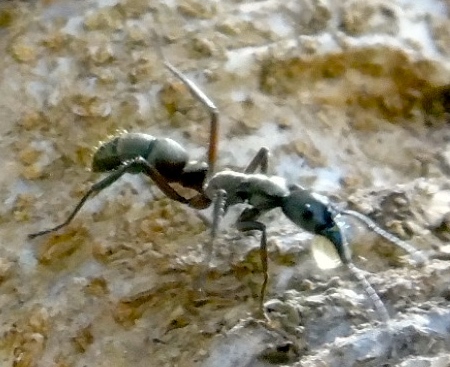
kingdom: Animalia
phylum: Arthropoda
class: Insecta
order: Hymenoptera
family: Formicidae
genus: Pachycondyla
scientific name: Pachycondyla villosa
